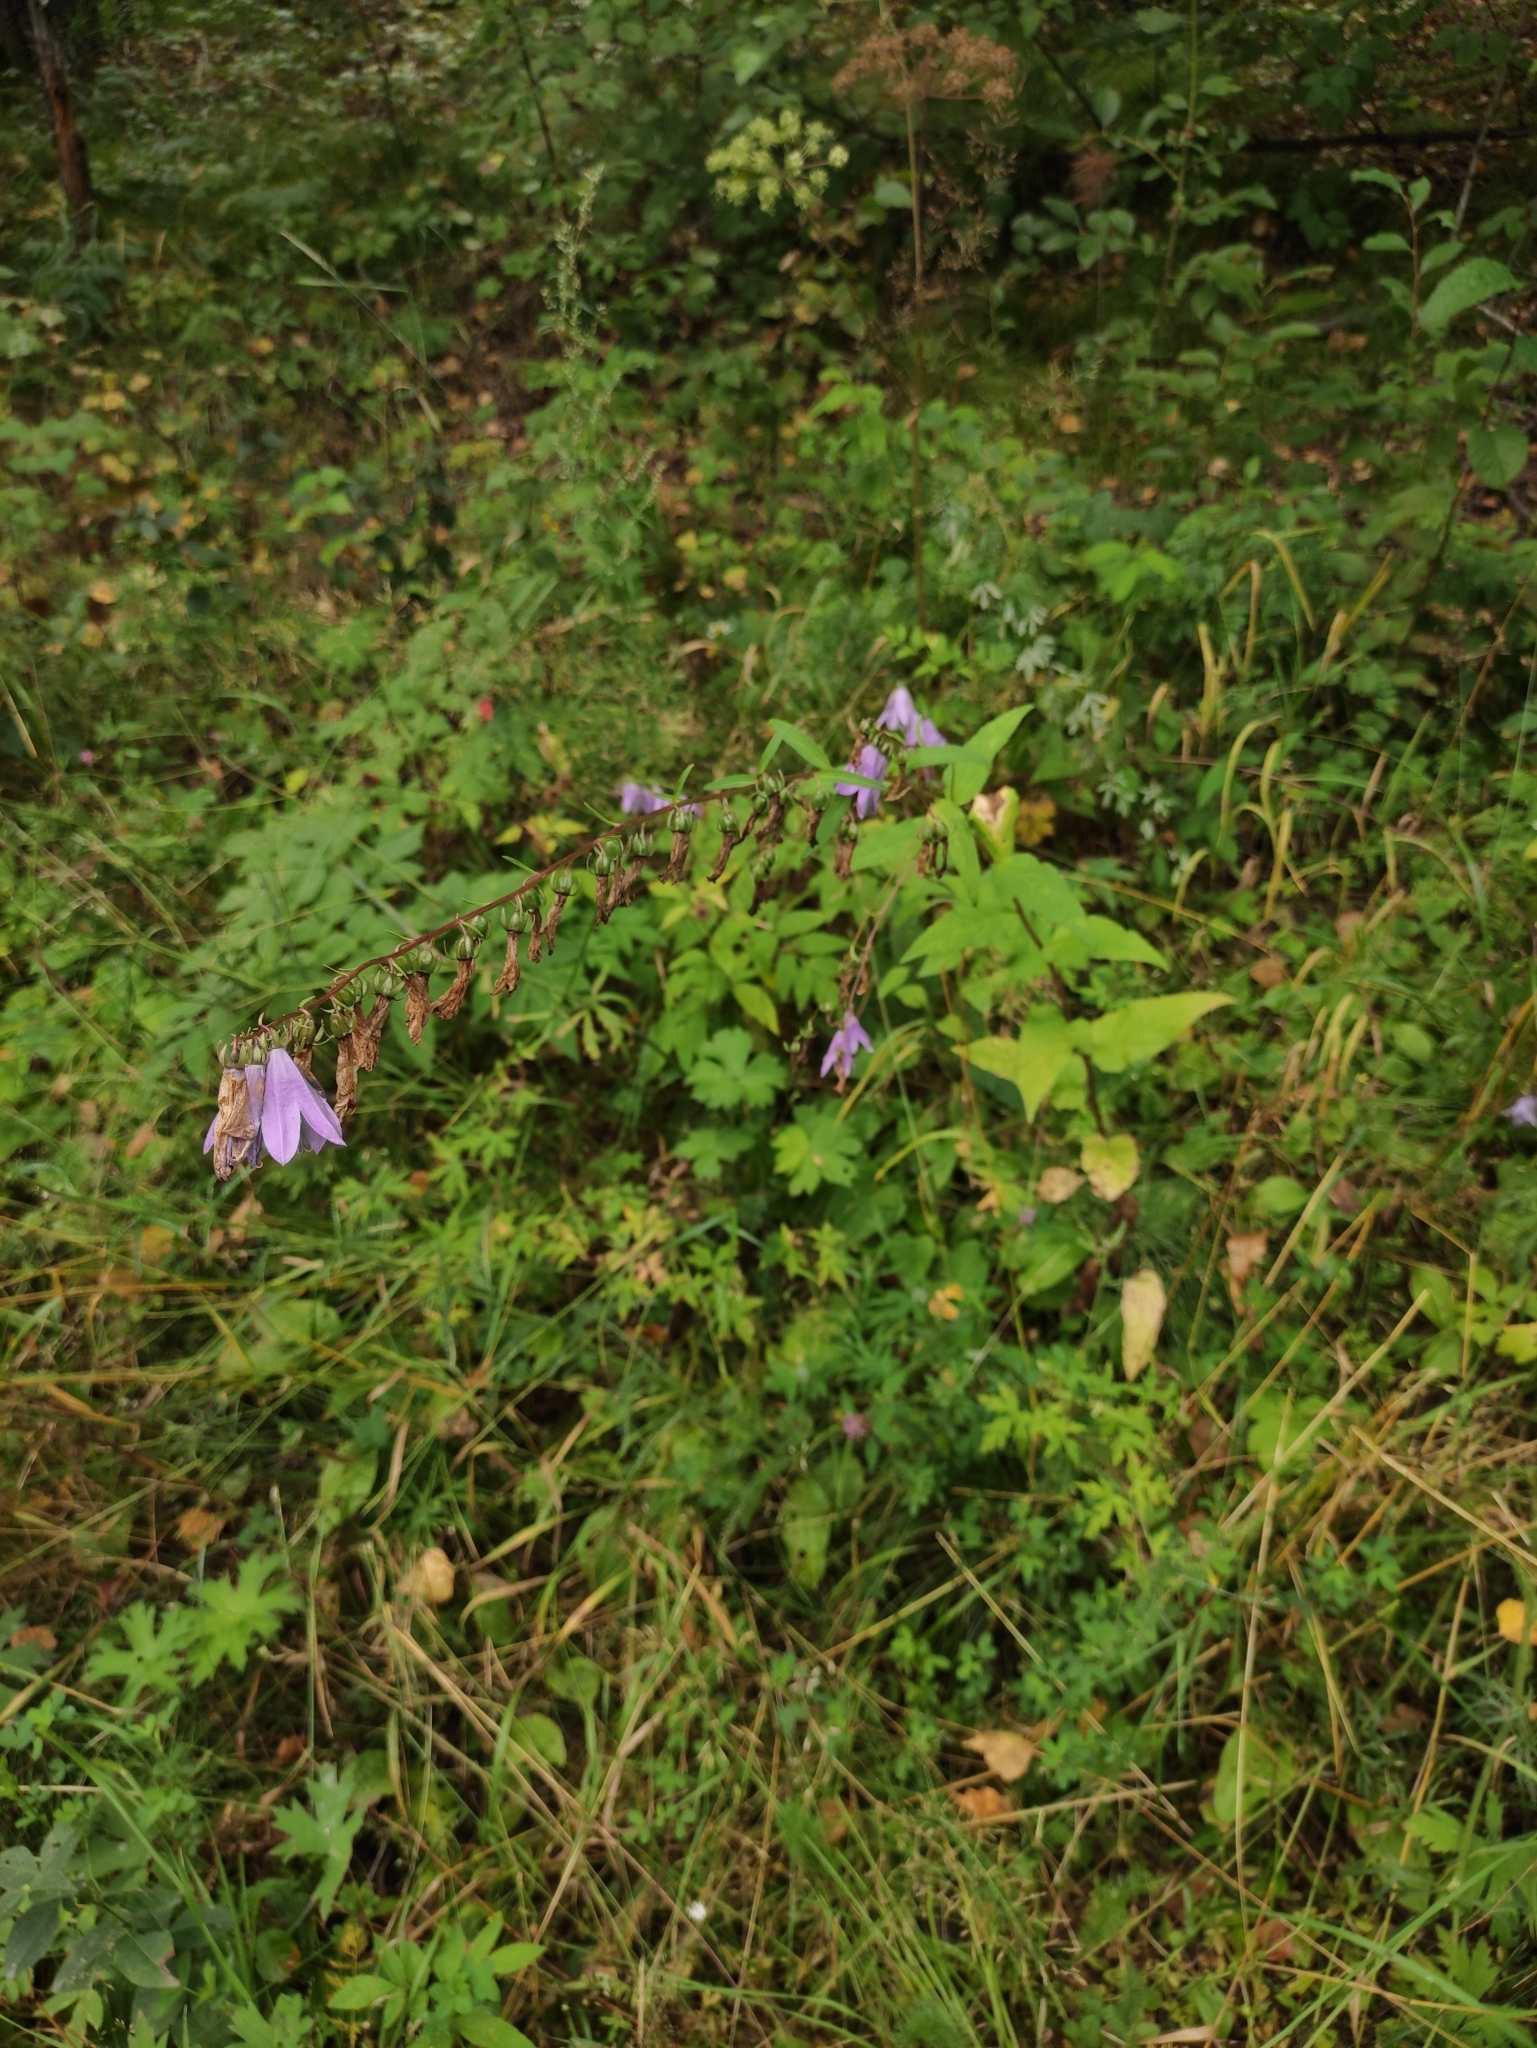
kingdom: Plantae
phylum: Tracheophyta
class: Magnoliopsida
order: Asterales
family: Campanulaceae
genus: Campanula
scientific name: Campanula rapunculoides
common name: Creeping bellflower
